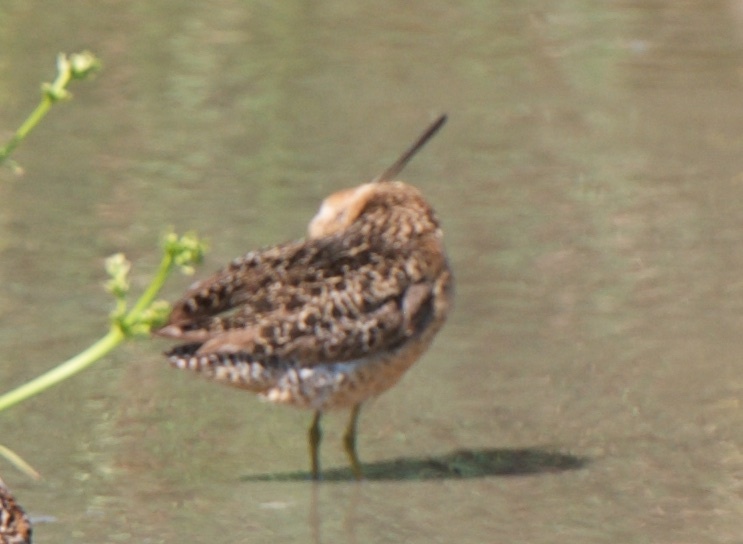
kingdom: Animalia
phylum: Chordata
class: Aves
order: Charadriiformes
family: Scolopacidae
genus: Limnodromus
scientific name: Limnodromus scolopaceus
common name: Long-billed dowitcher
